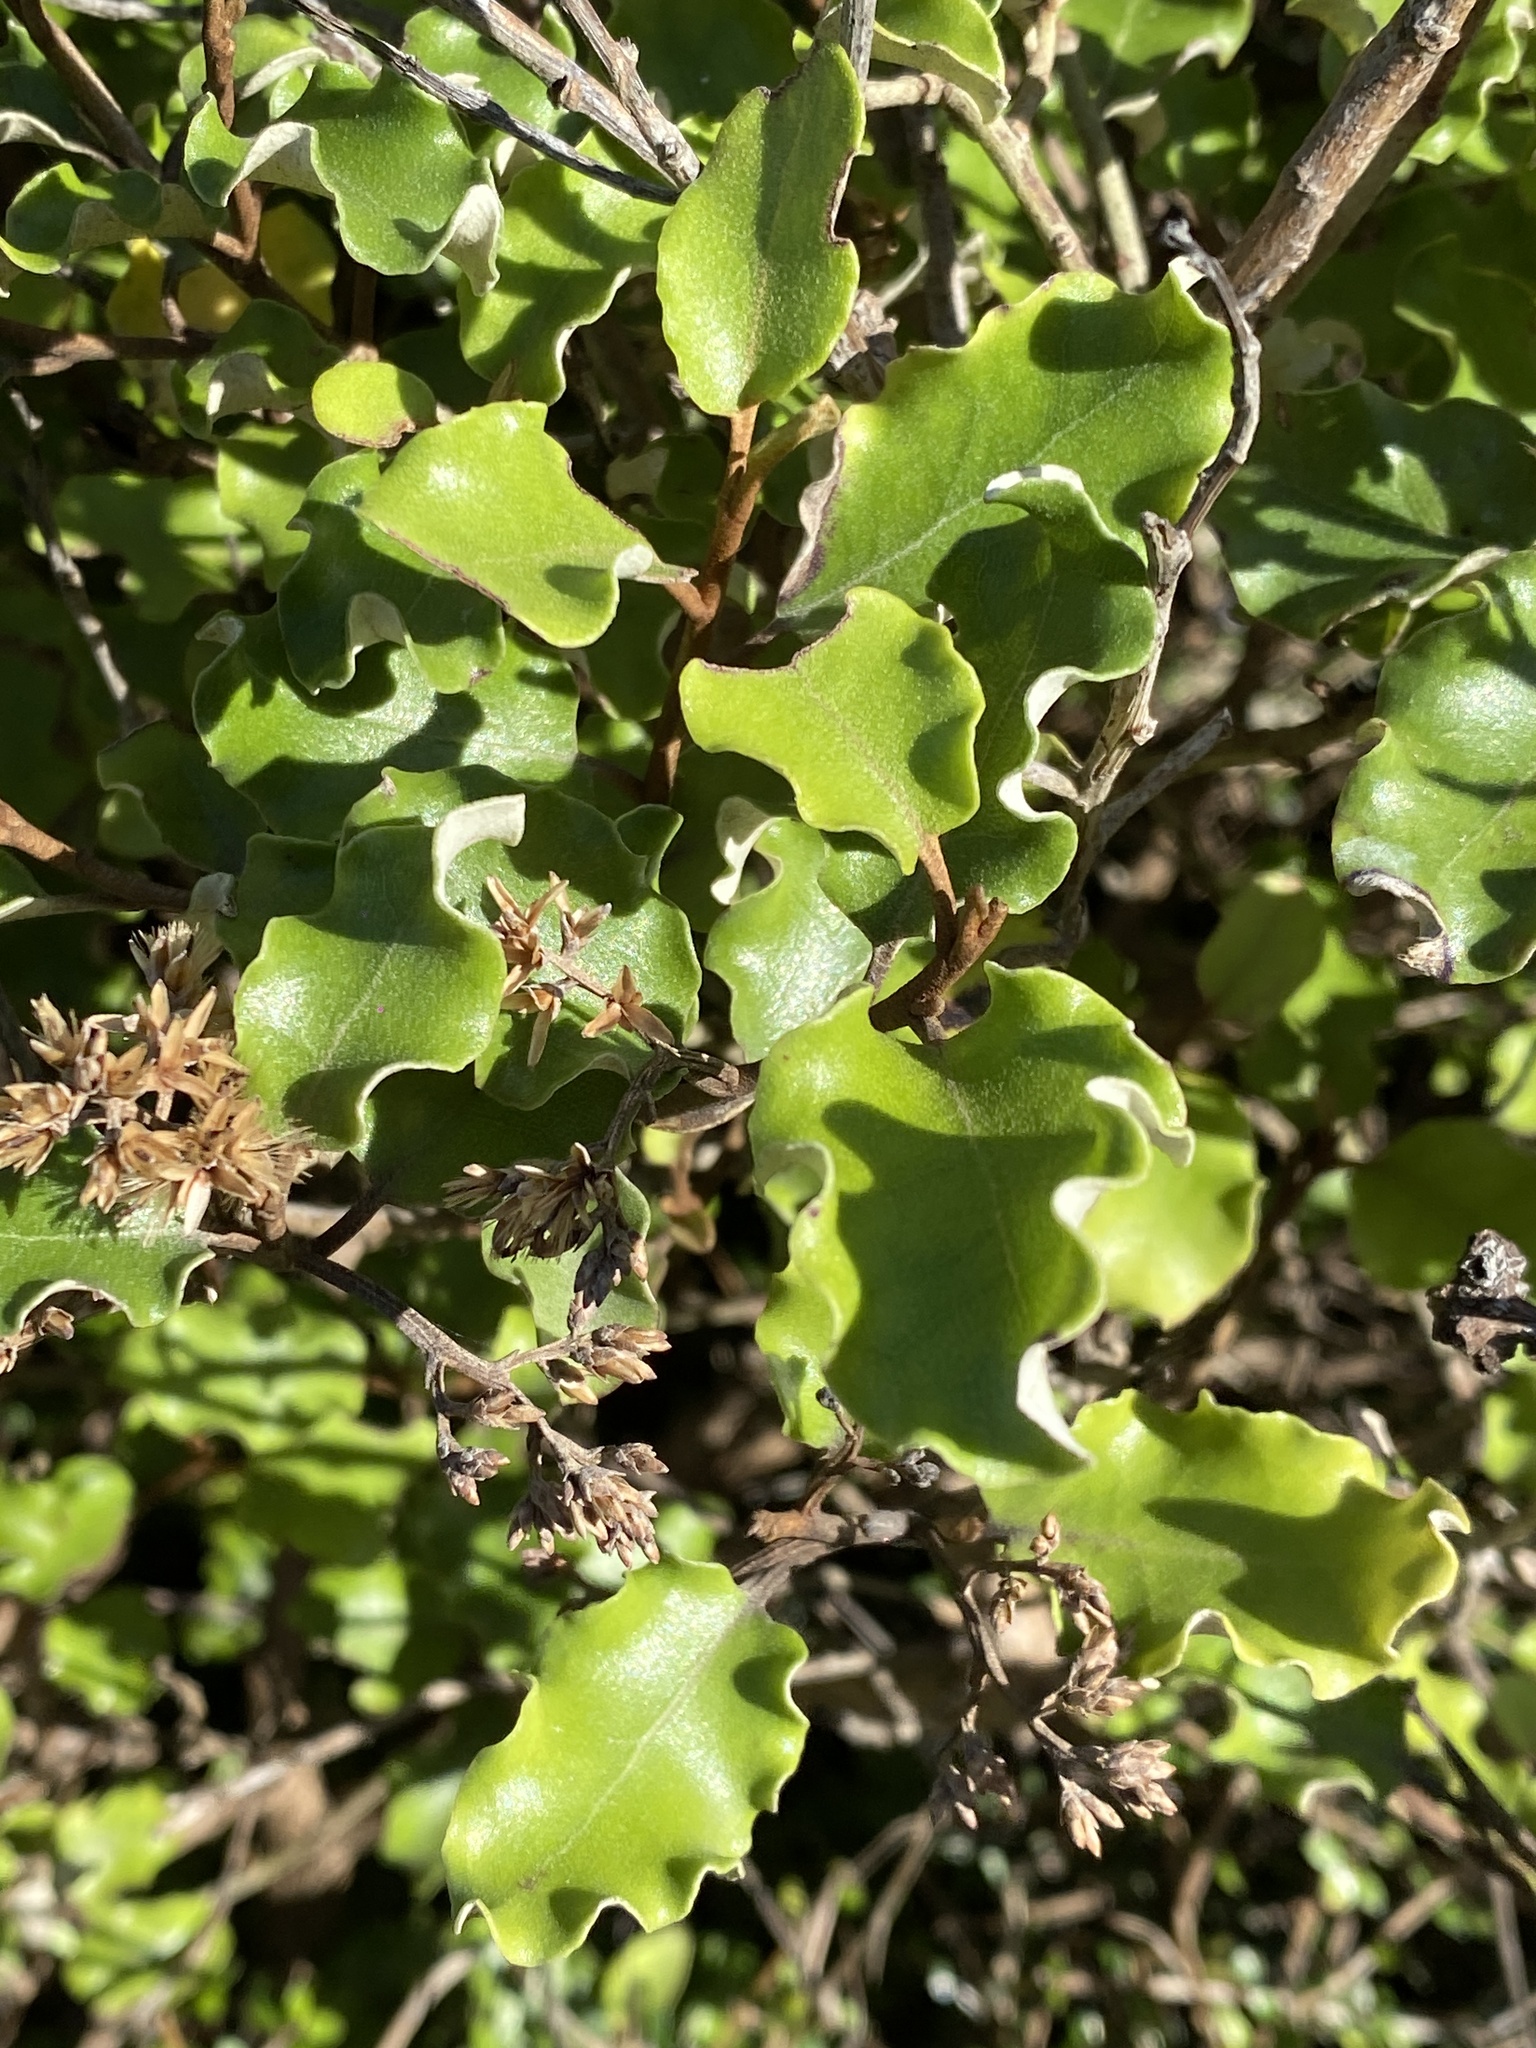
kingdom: Plantae
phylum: Tracheophyta
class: Magnoliopsida
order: Asterales
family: Asteraceae
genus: Olearia
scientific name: Olearia paniculata
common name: Akiraho
